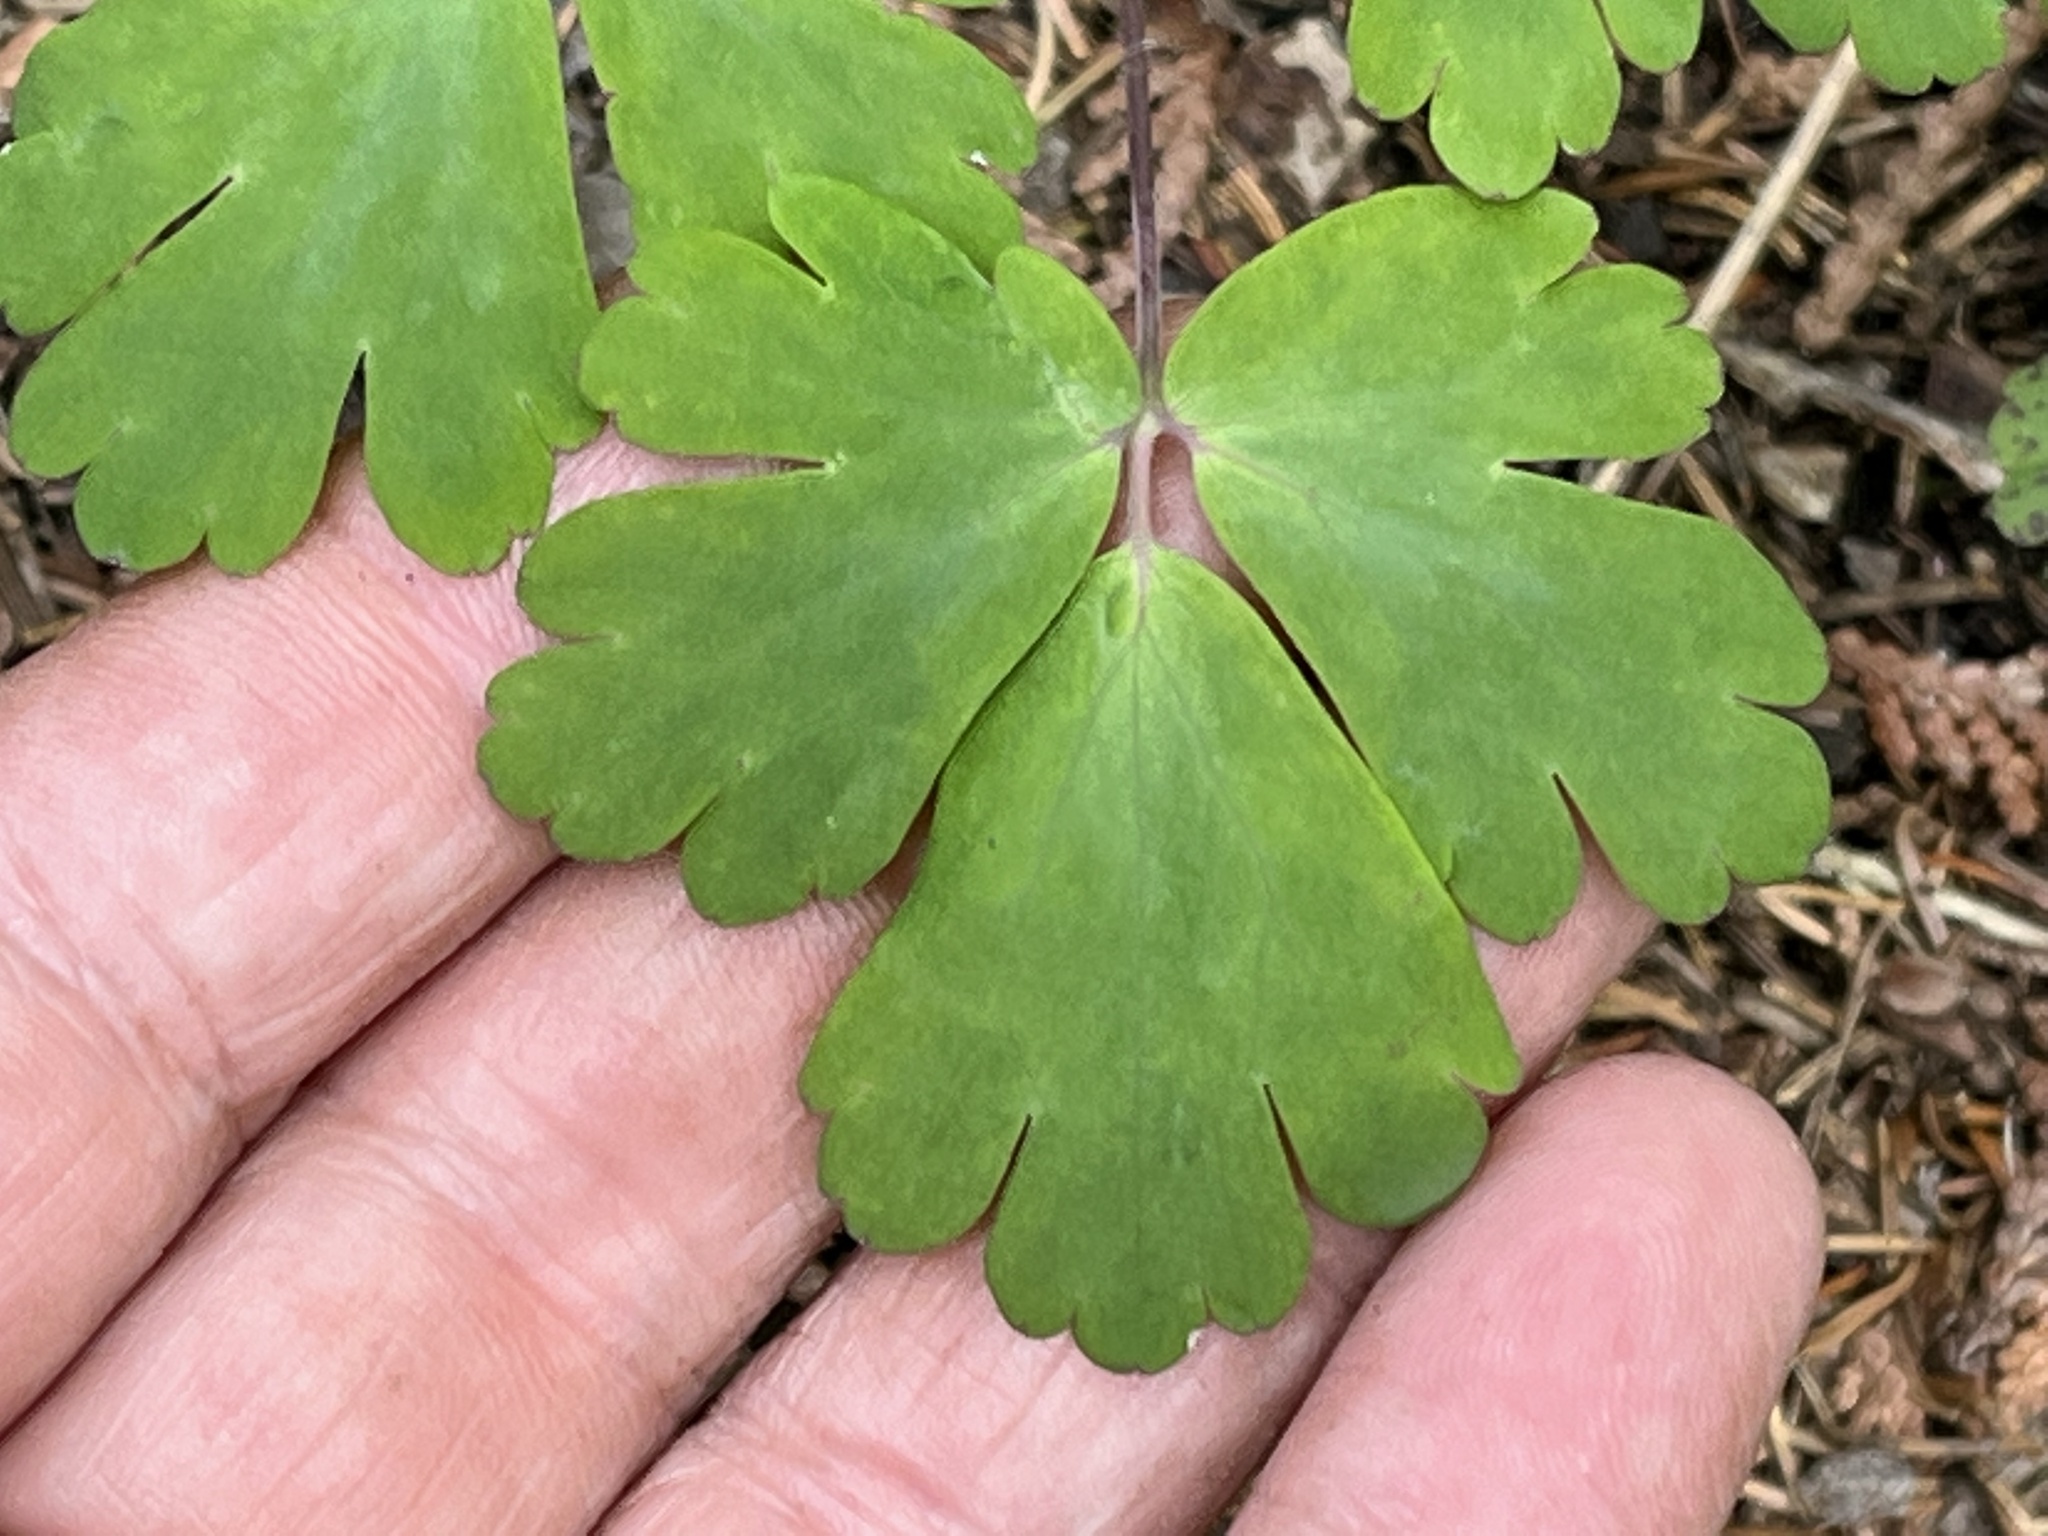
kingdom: Plantae
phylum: Tracheophyta
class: Magnoliopsida
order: Ranunculales
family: Ranunculaceae
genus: Aquilegia
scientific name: Aquilegia canadensis
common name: American columbine
